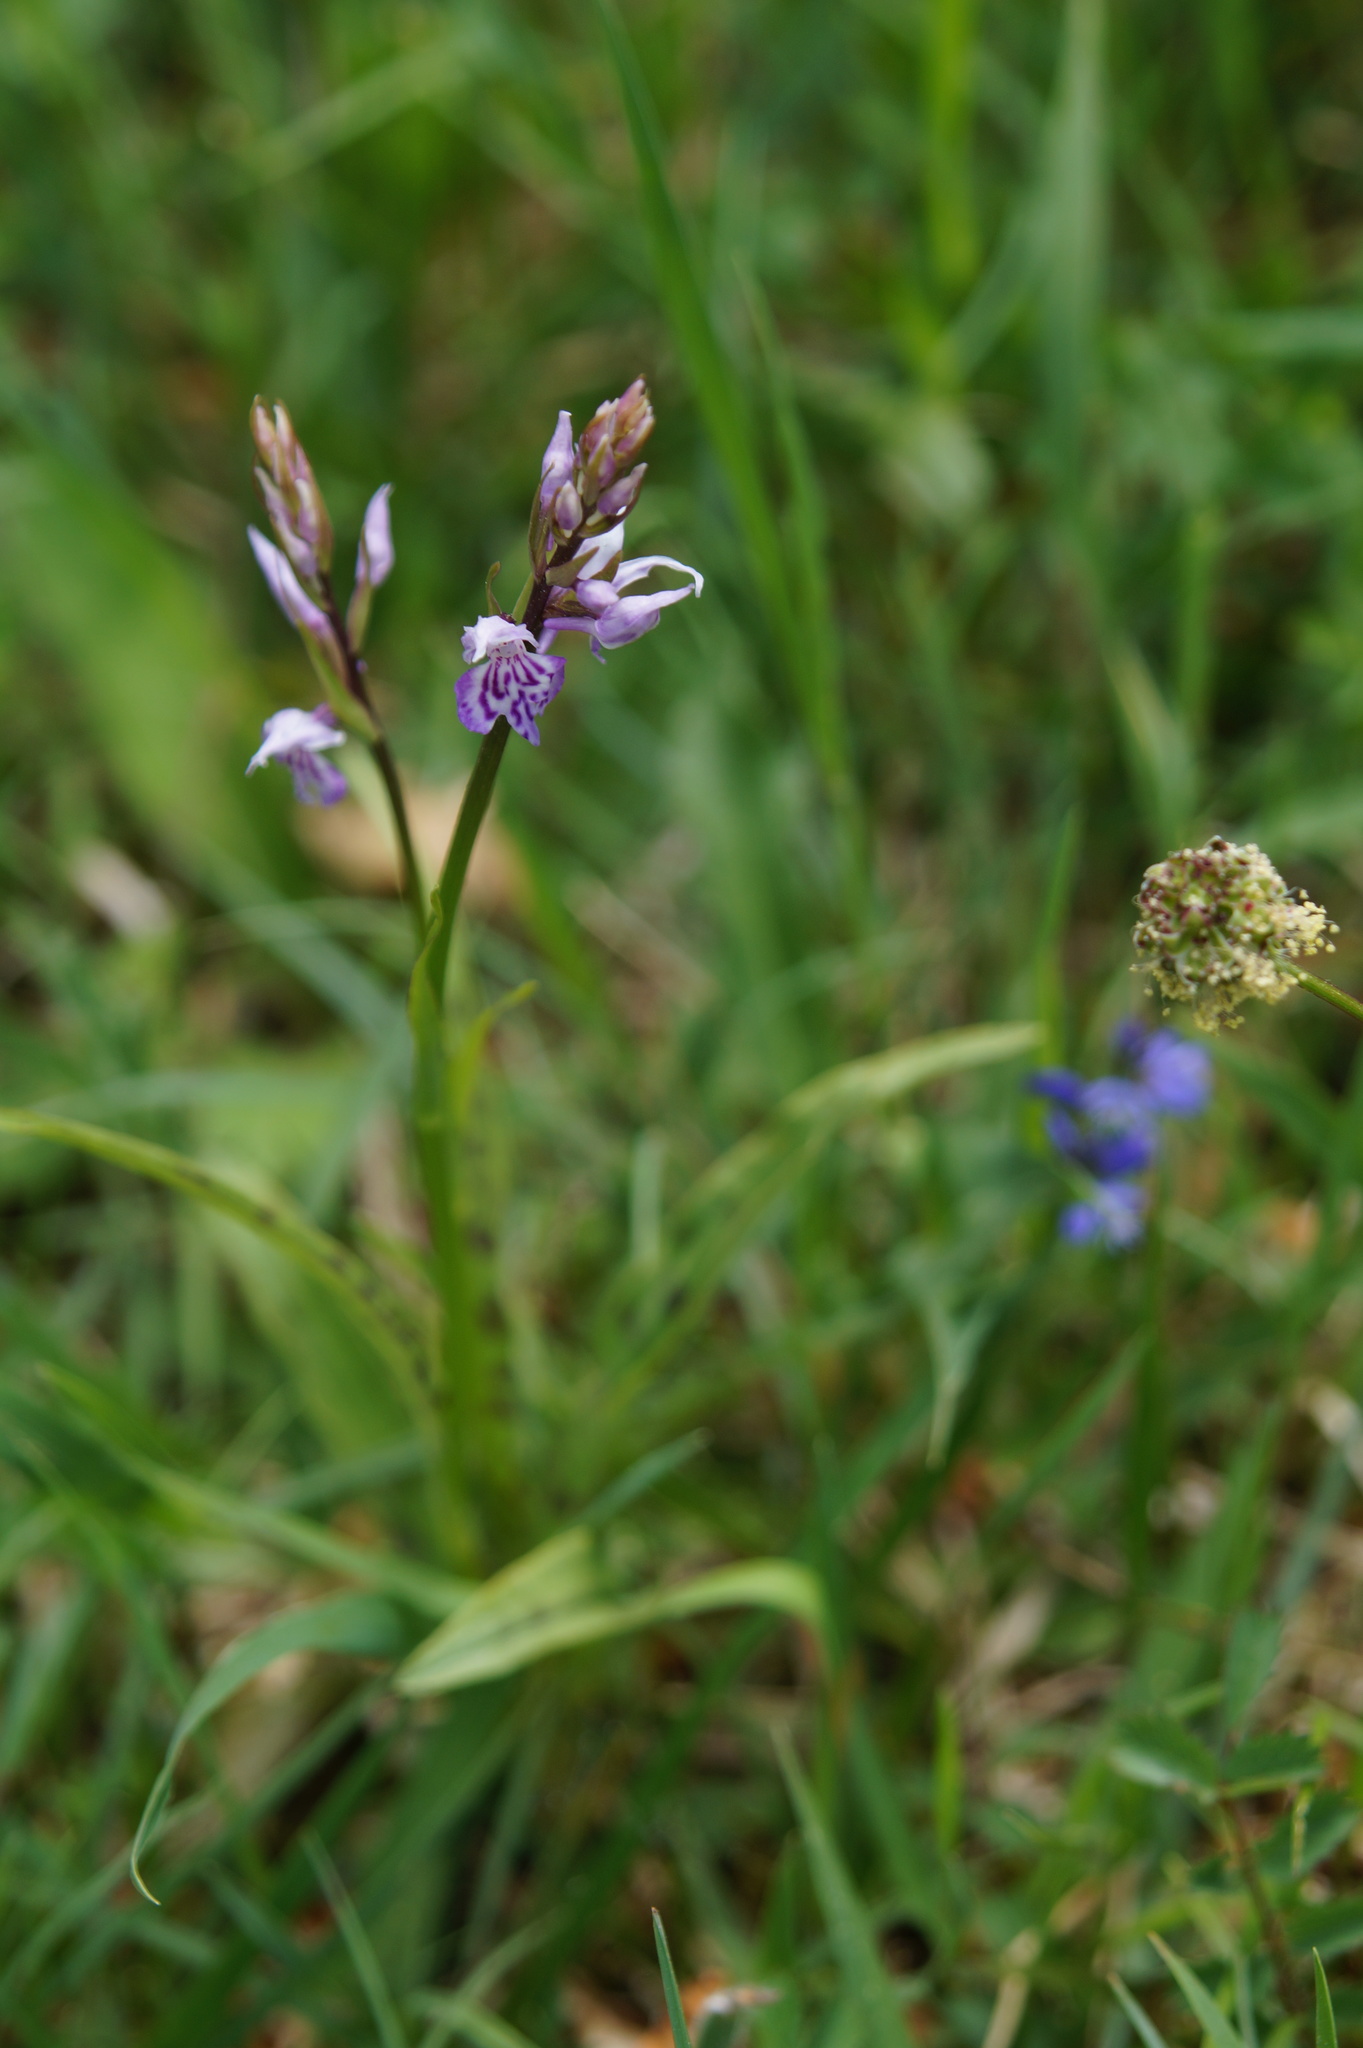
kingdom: Plantae
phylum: Tracheophyta
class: Liliopsida
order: Asparagales
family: Orchidaceae
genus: Dactylorhiza
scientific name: Dactylorhiza maculata
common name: Heath spotted-orchid
